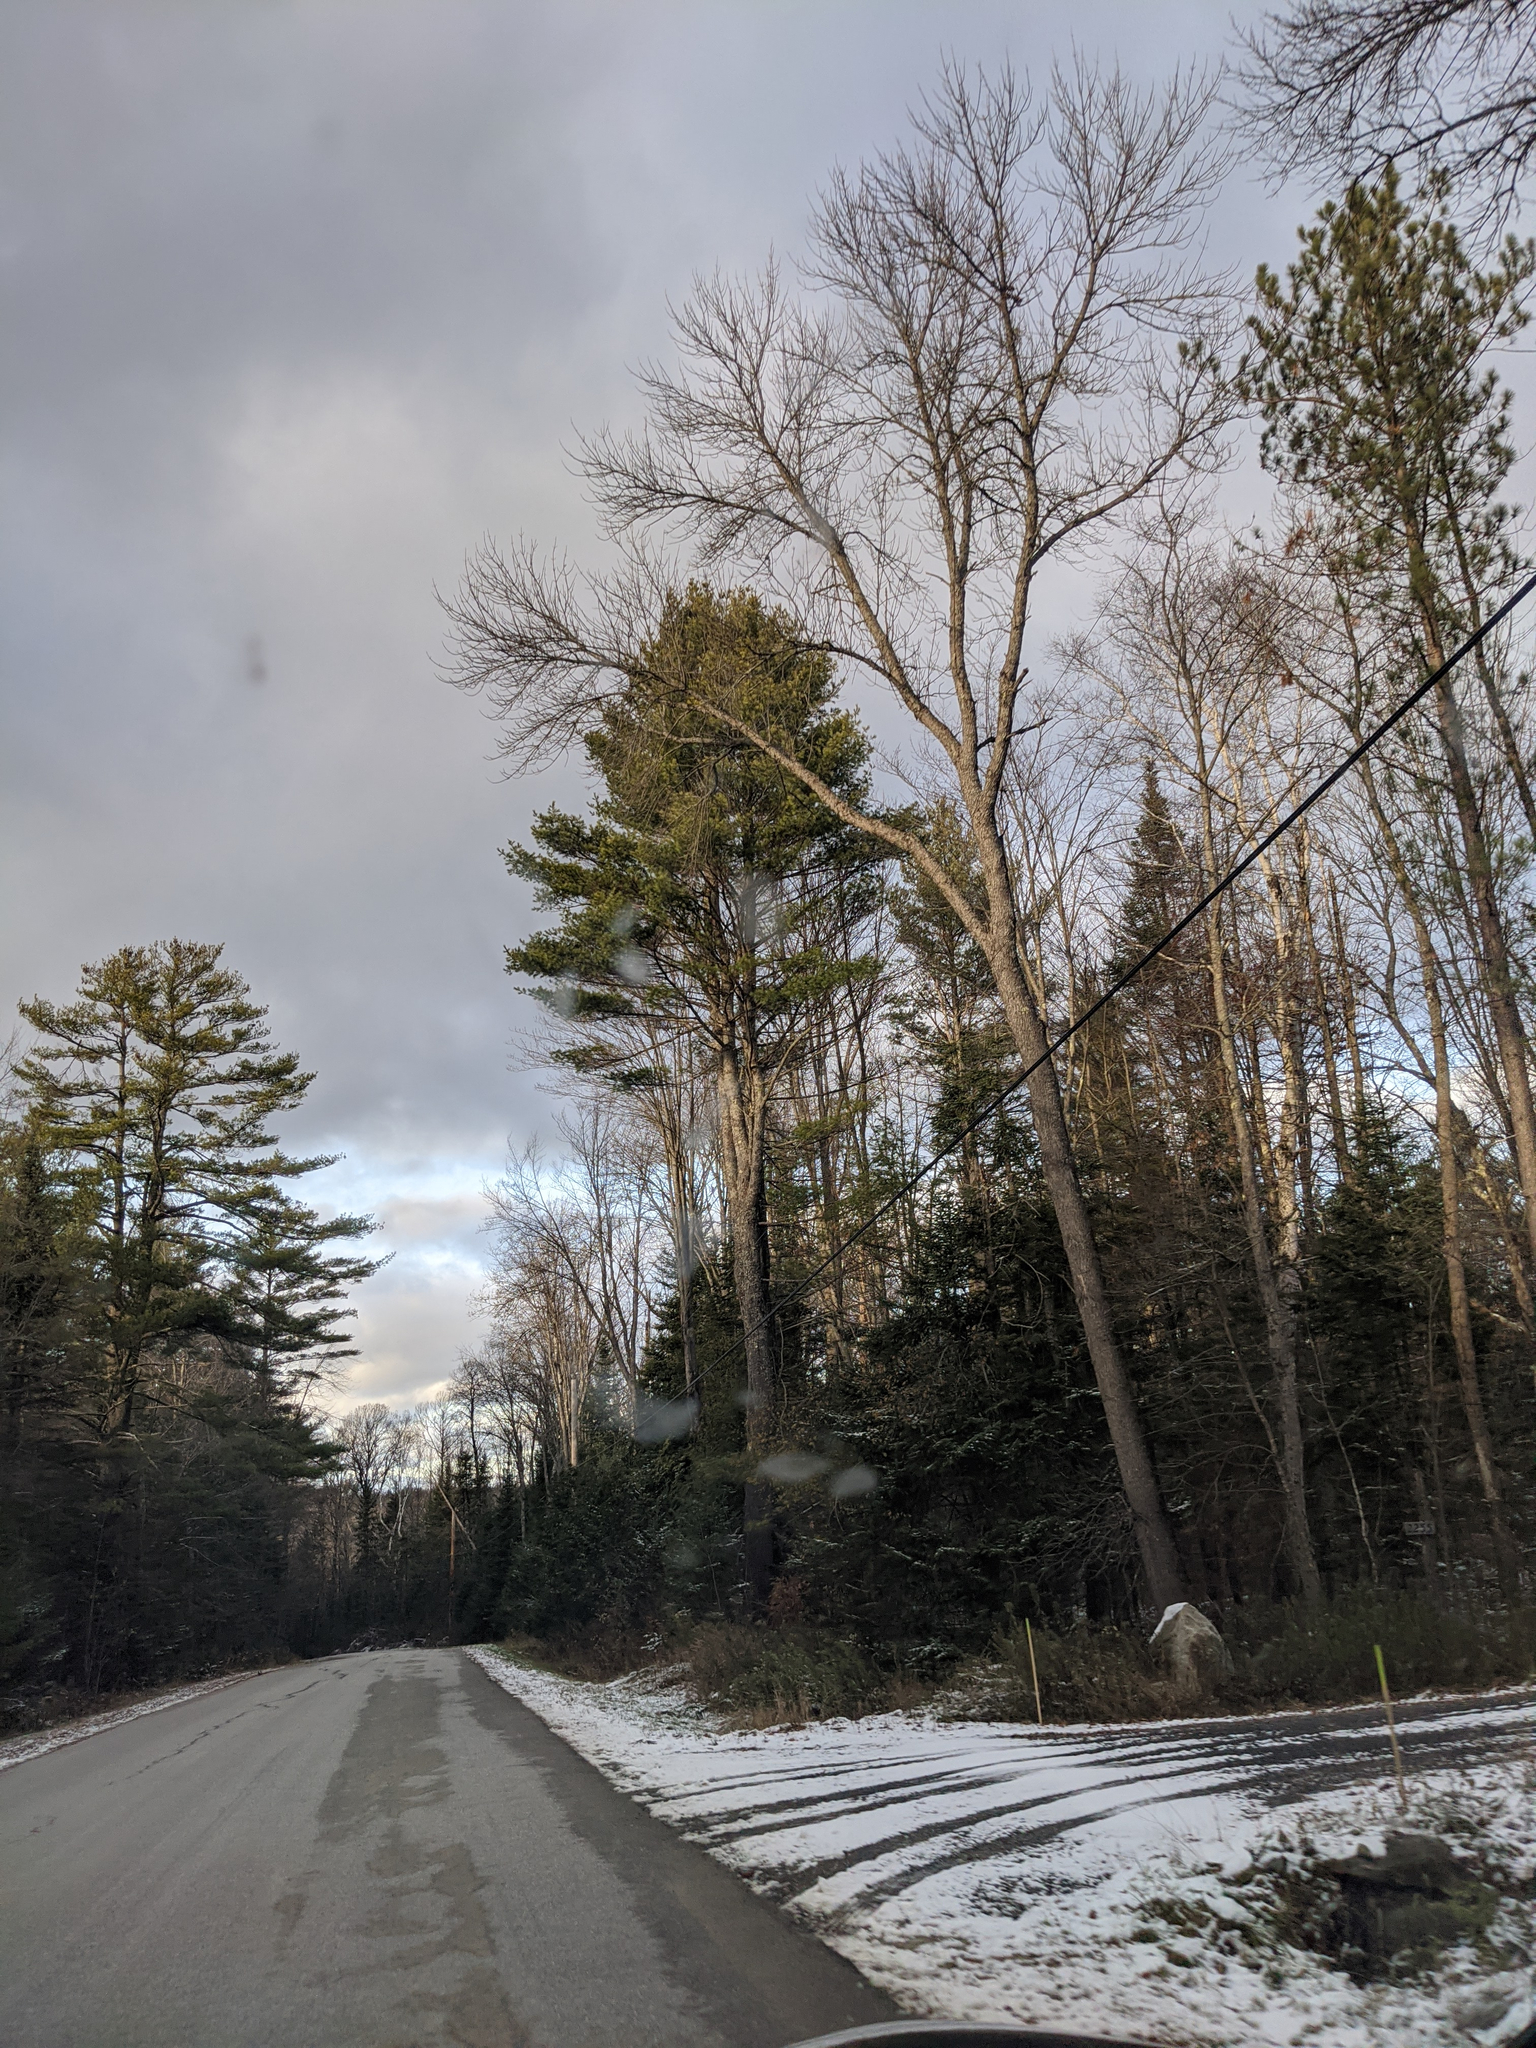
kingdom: Plantae
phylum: Tracheophyta
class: Pinopsida
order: Pinales
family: Pinaceae
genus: Pinus
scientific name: Pinus strobus
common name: Weymouth pine
